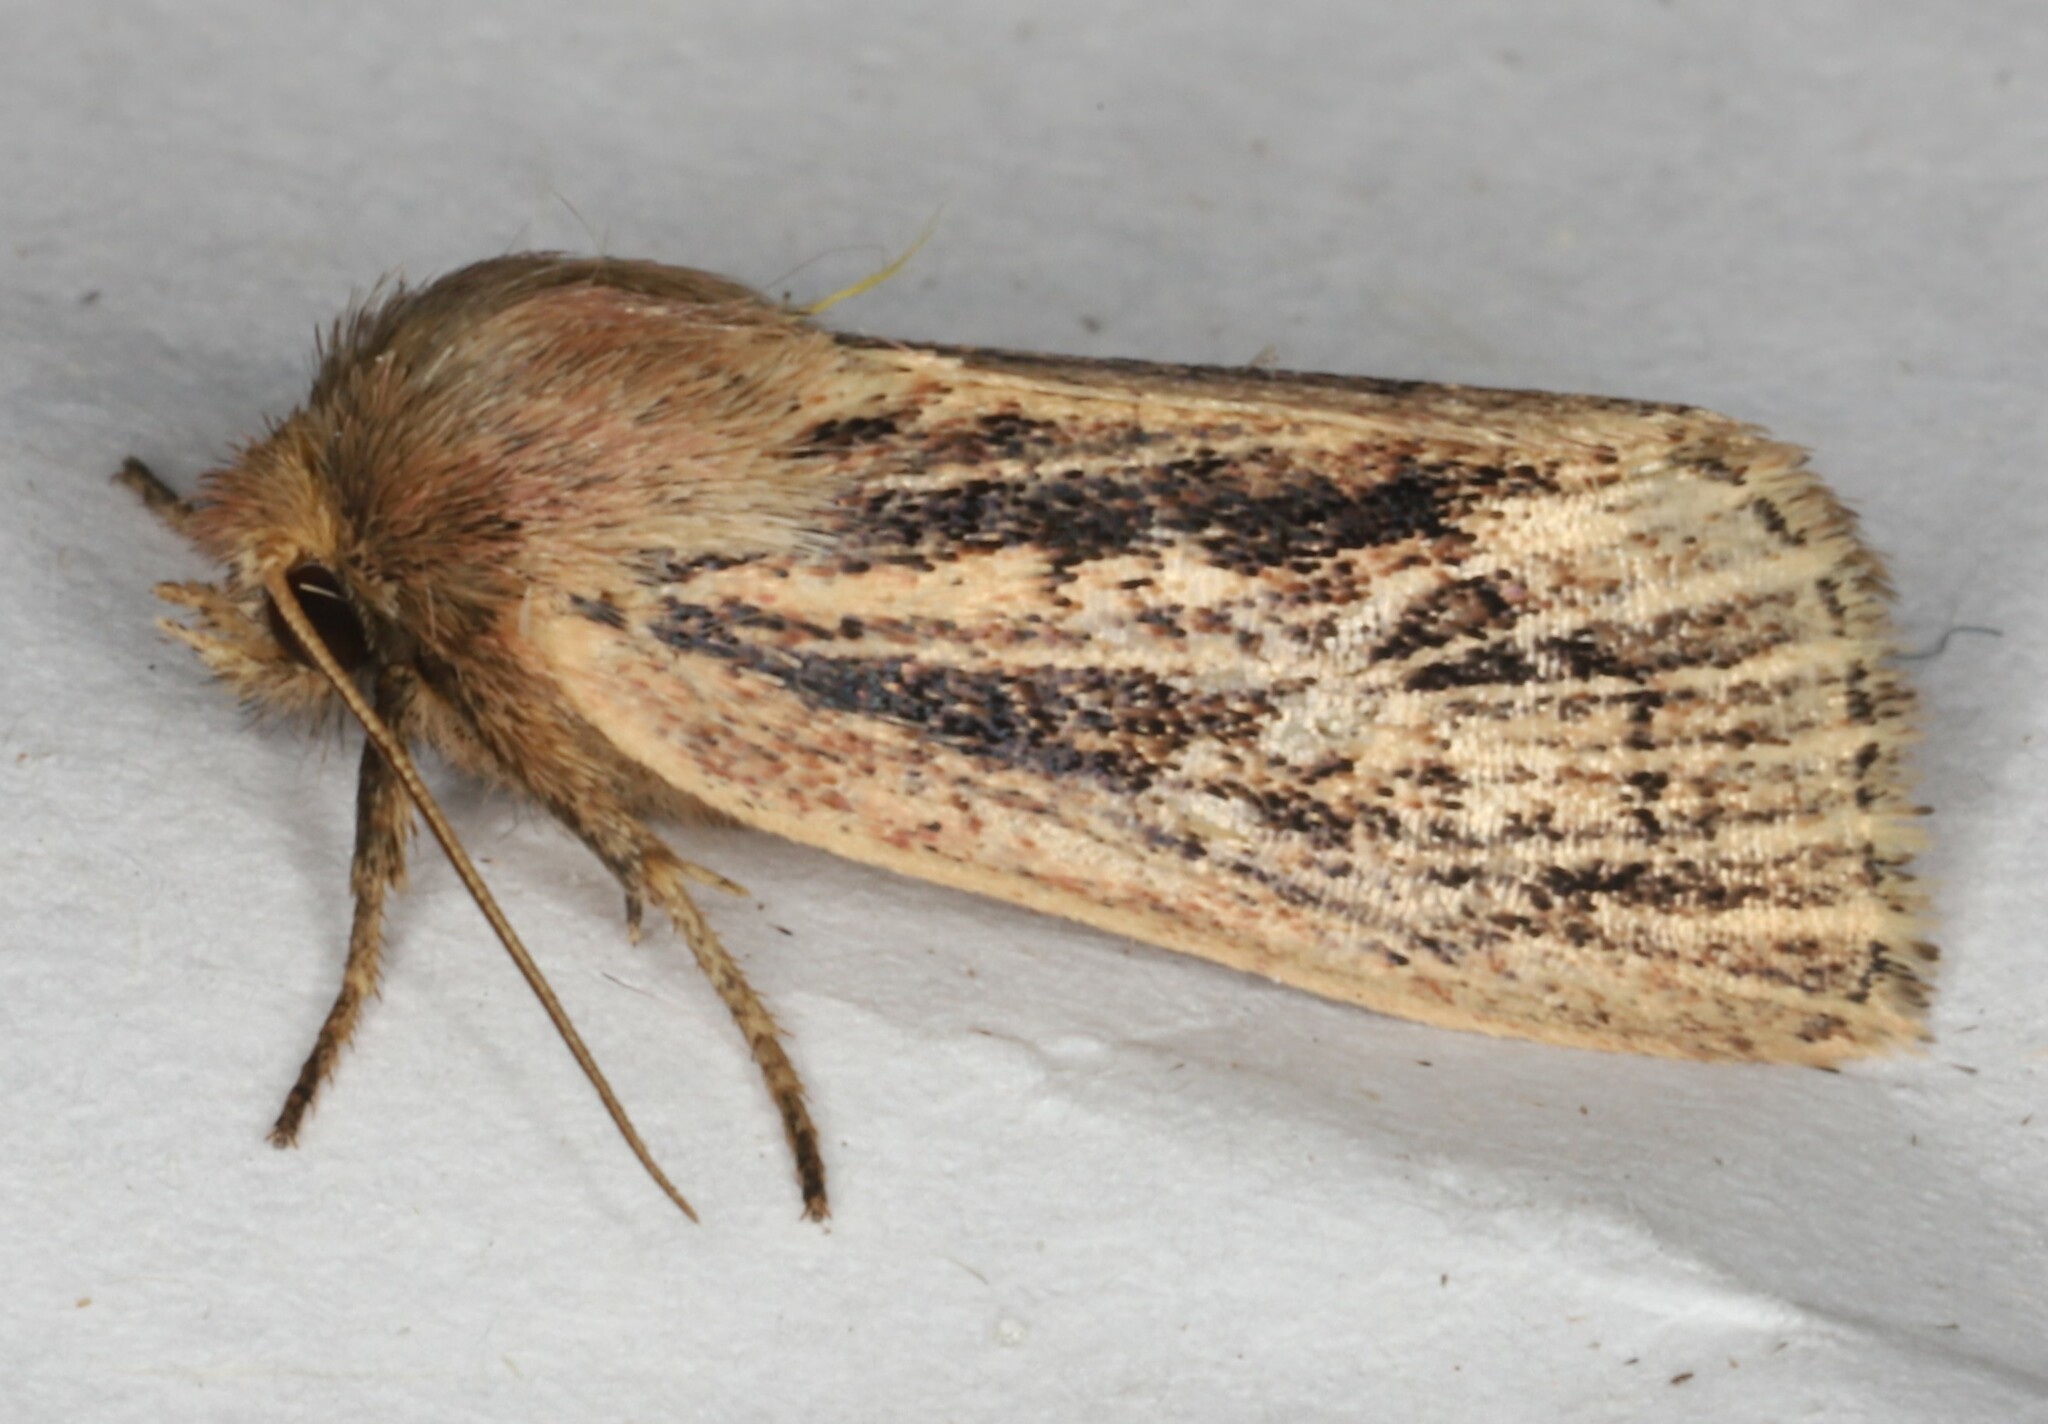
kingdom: Animalia
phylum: Arthropoda
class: Insecta
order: Lepidoptera
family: Noctuidae
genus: Hypocoena
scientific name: Hypocoena inquinata
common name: Tufted sedge moth
